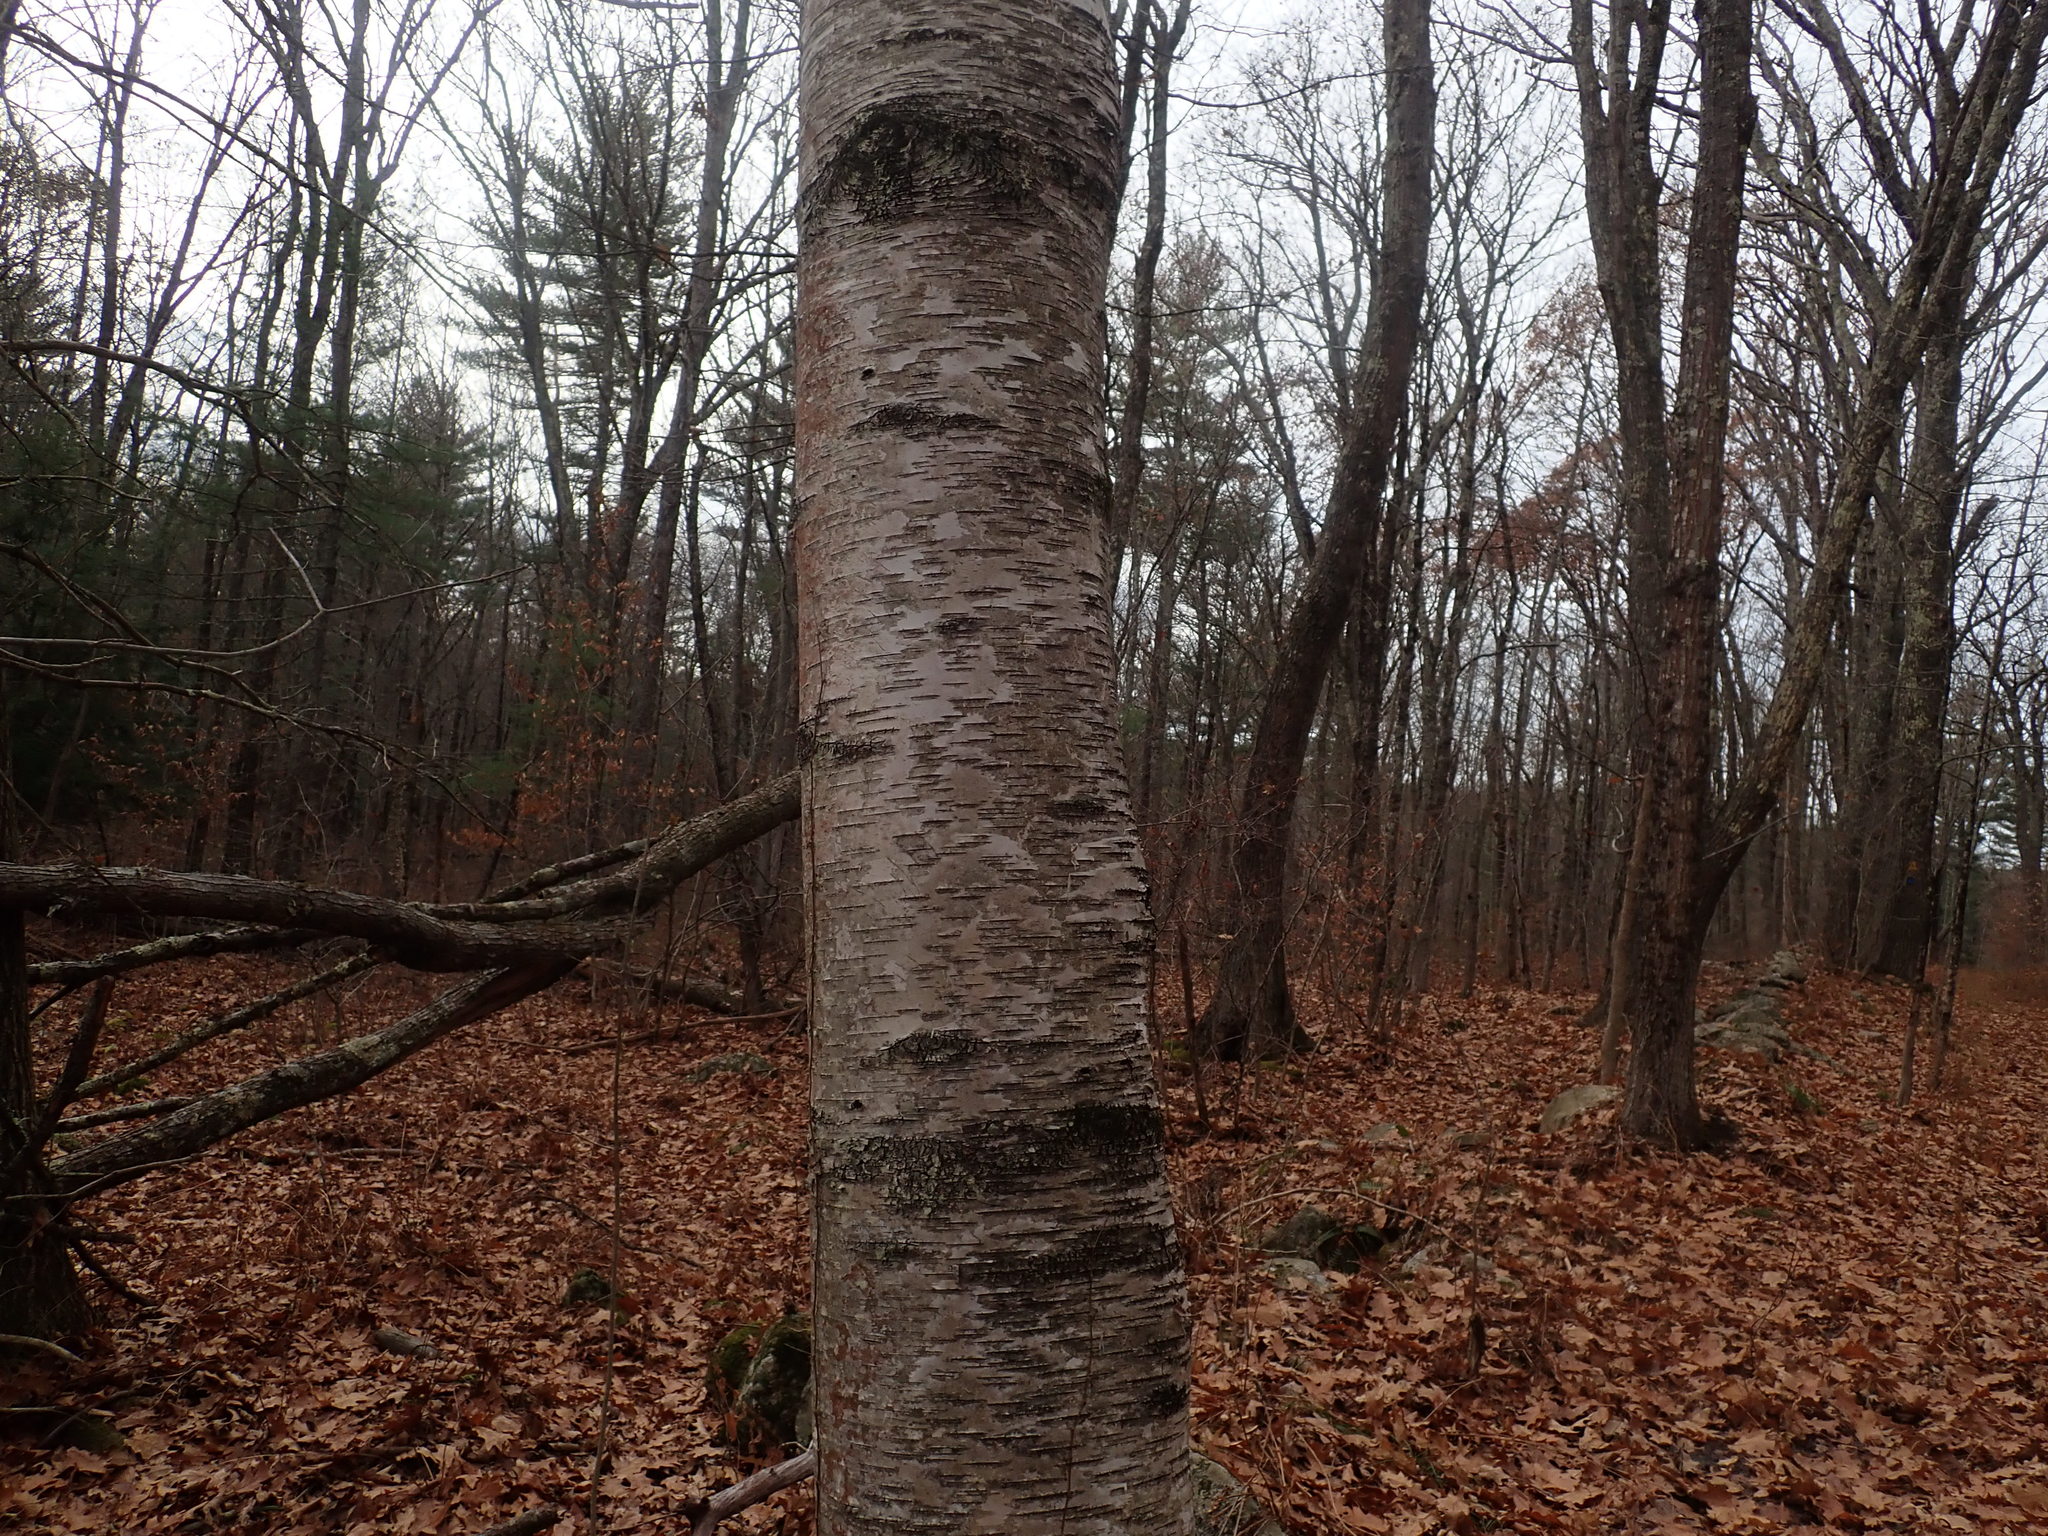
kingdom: Plantae
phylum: Tracheophyta
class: Magnoliopsida
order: Fagales
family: Betulaceae
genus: Betula
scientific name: Betula papyrifera
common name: Paper birch
